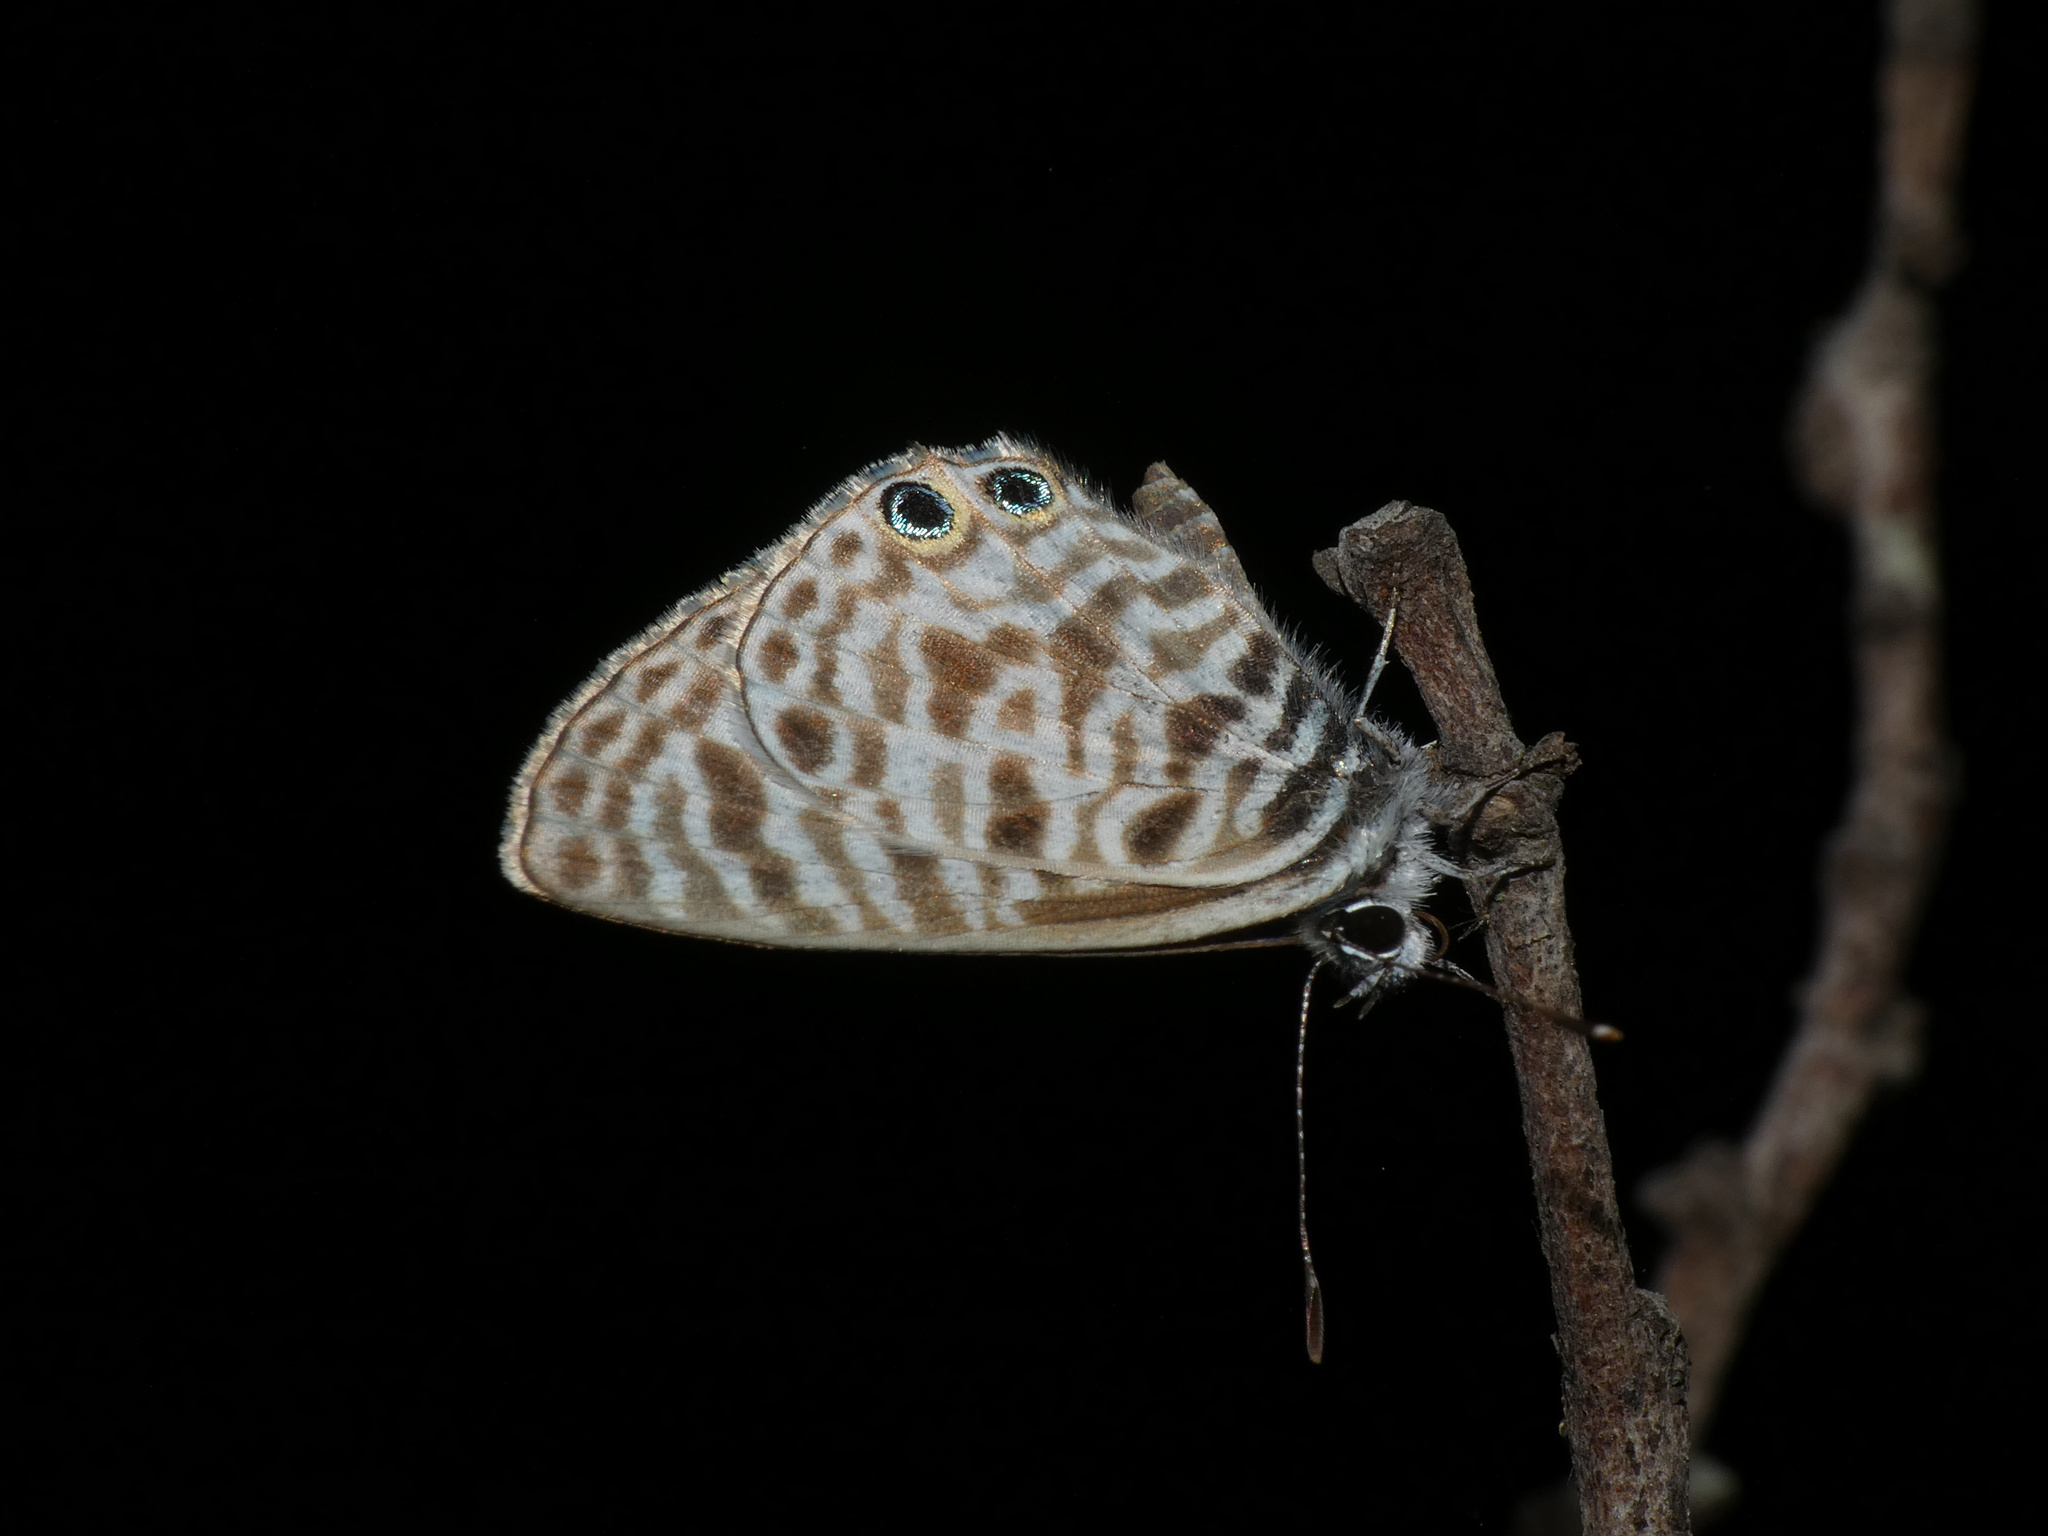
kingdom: Animalia
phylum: Arthropoda
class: Insecta
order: Lepidoptera
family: Lycaenidae
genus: Leptotes
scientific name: Leptotes
